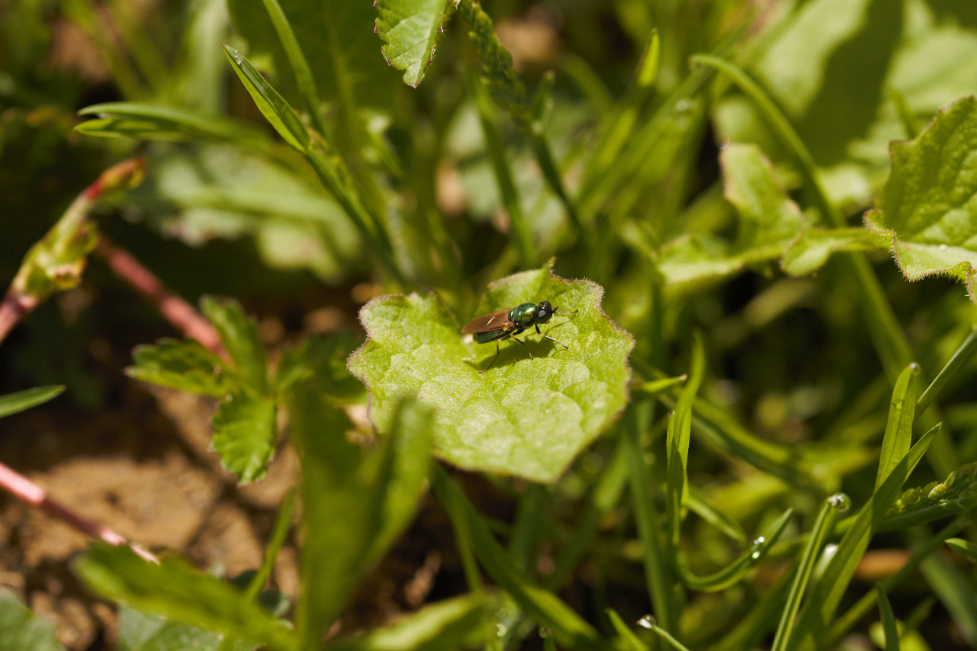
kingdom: Animalia
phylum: Arthropoda
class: Insecta
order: Diptera
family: Stratiomyidae
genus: Chloromyia
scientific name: Chloromyia formosa
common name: Soldier fly
